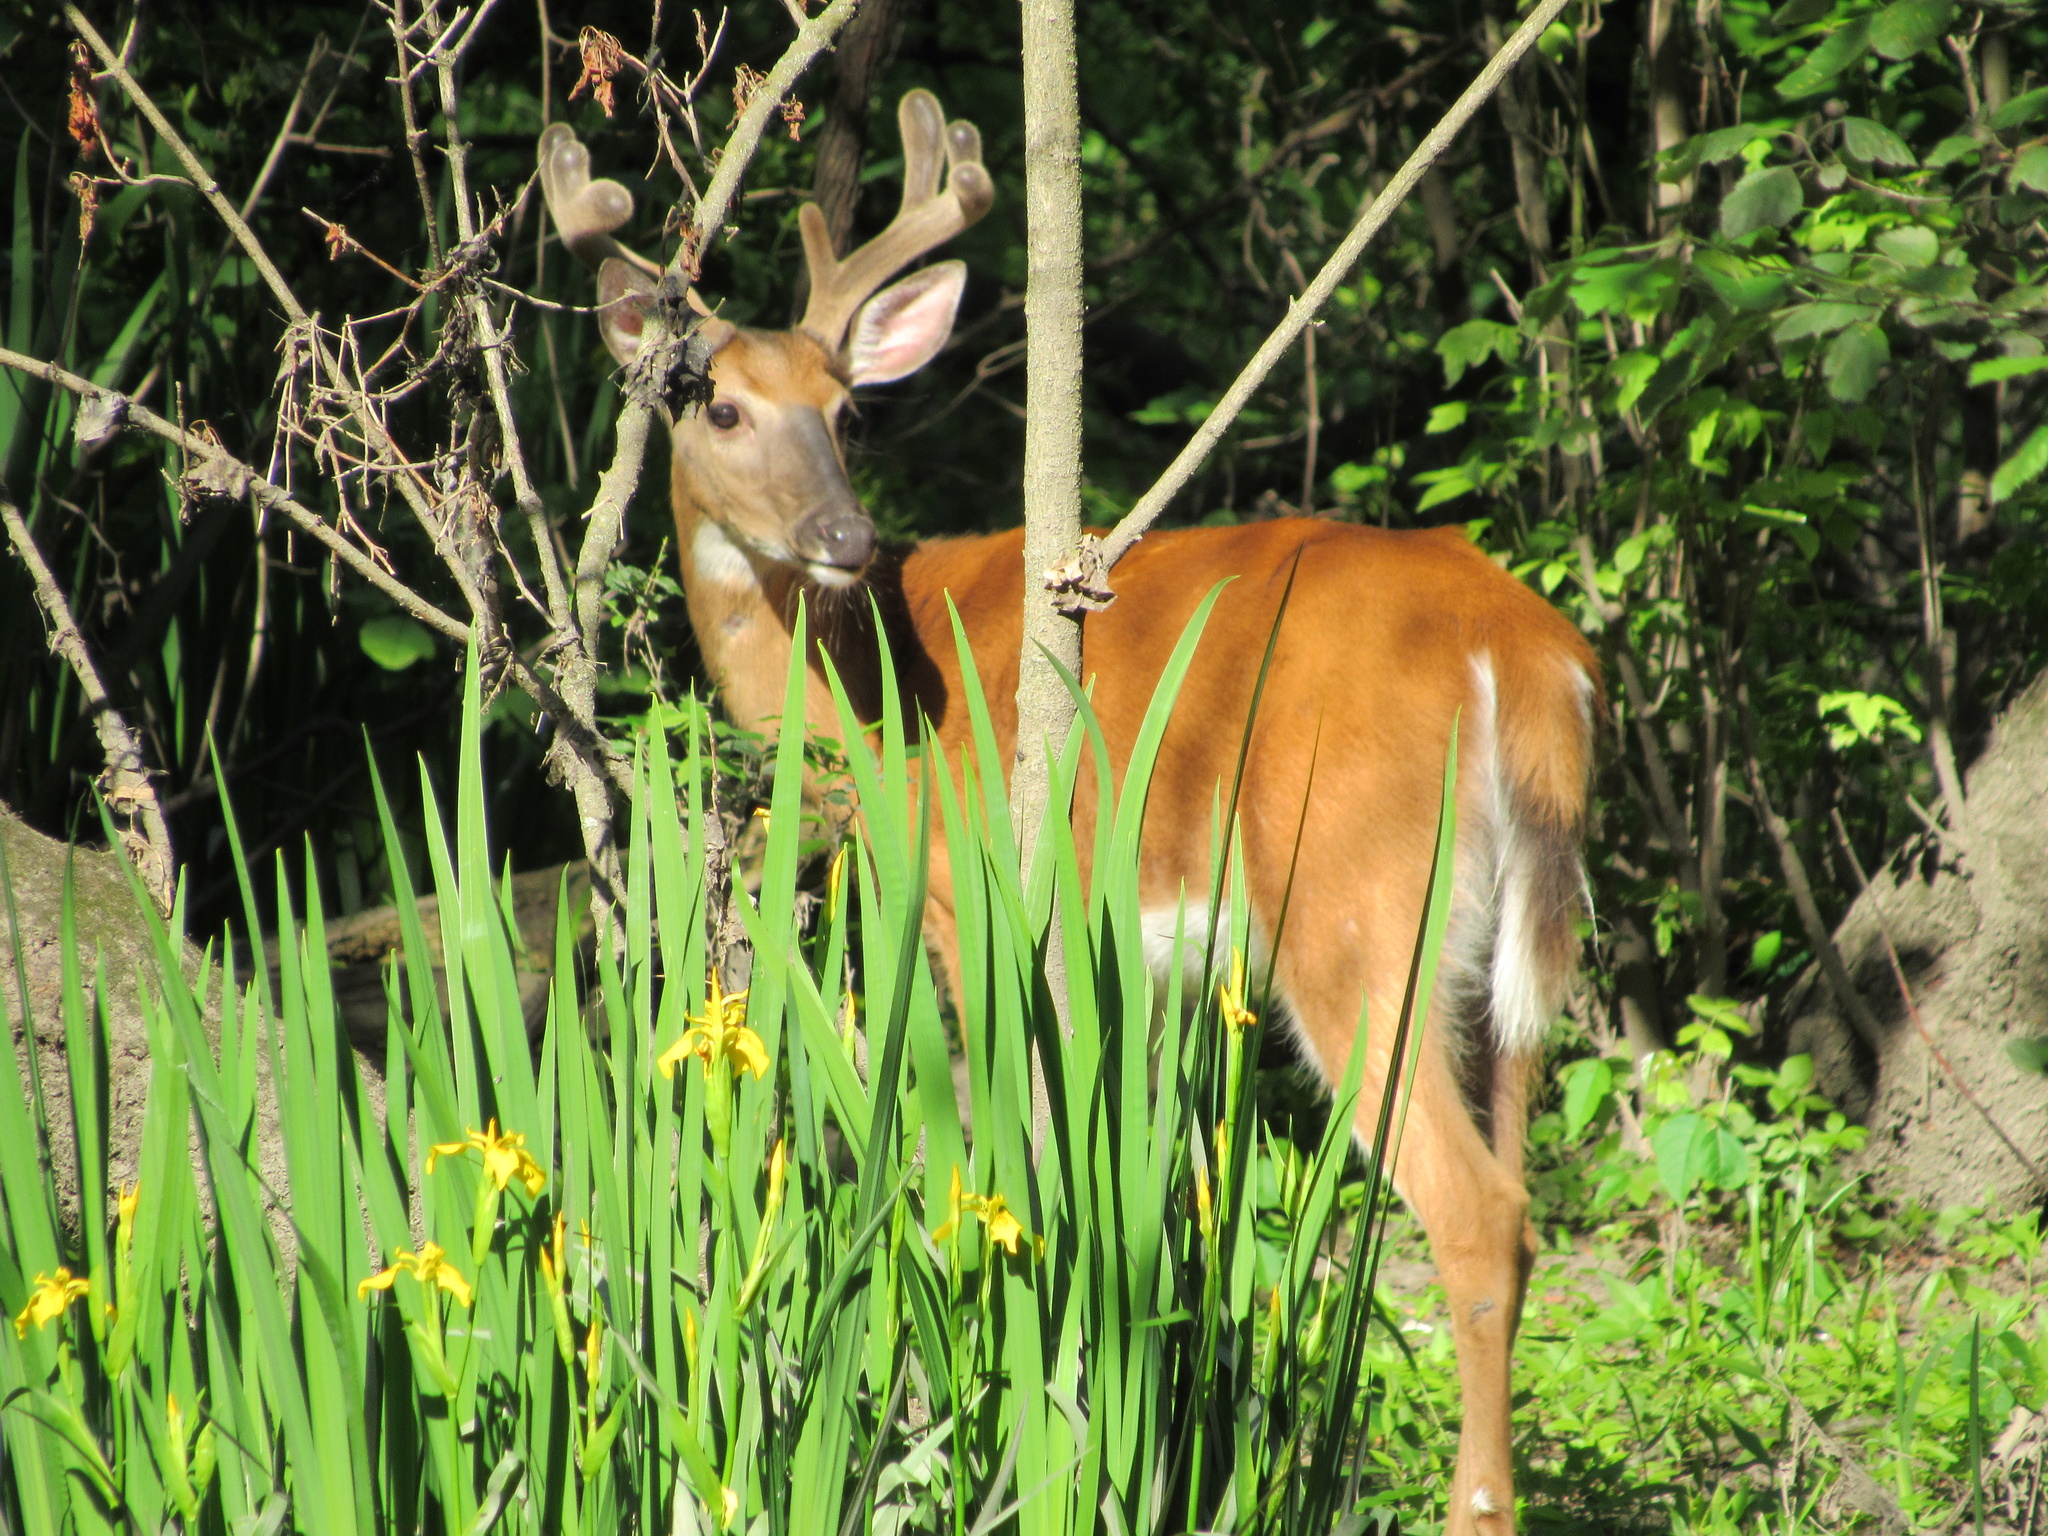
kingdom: Animalia
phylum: Chordata
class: Mammalia
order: Artiodactyla
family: Cervidae
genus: Odocoileus
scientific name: Odocoileus virginianus
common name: White-tailed deer
